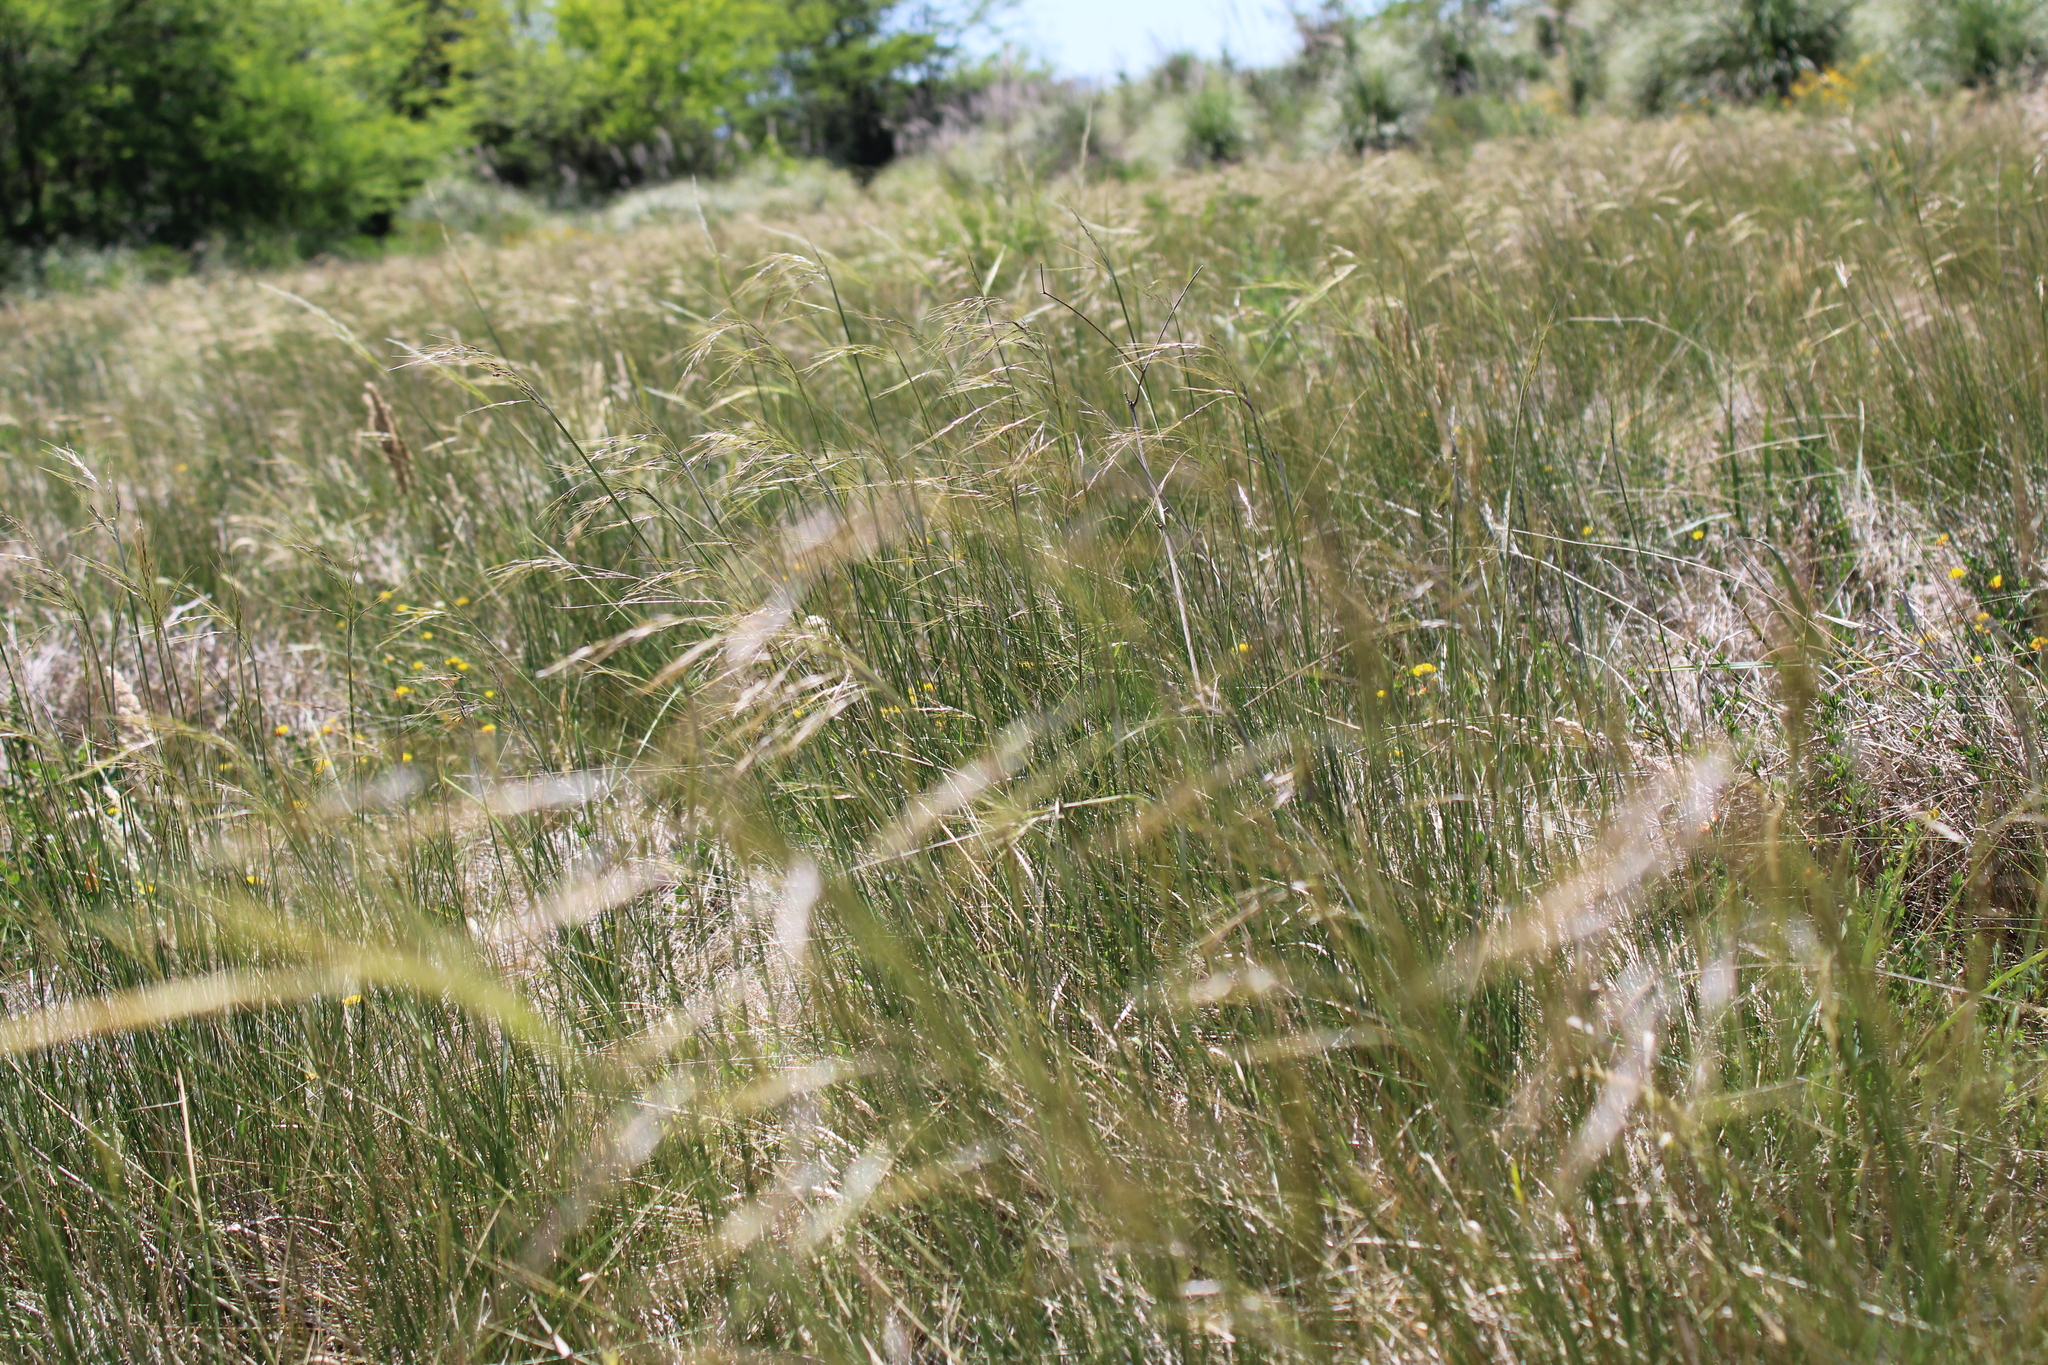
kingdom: Plantae
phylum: Tracheophyta
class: Liliopsida
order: Poales
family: Poaceae
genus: Nassella
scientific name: Nassella neesiana
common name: American needle-grass
